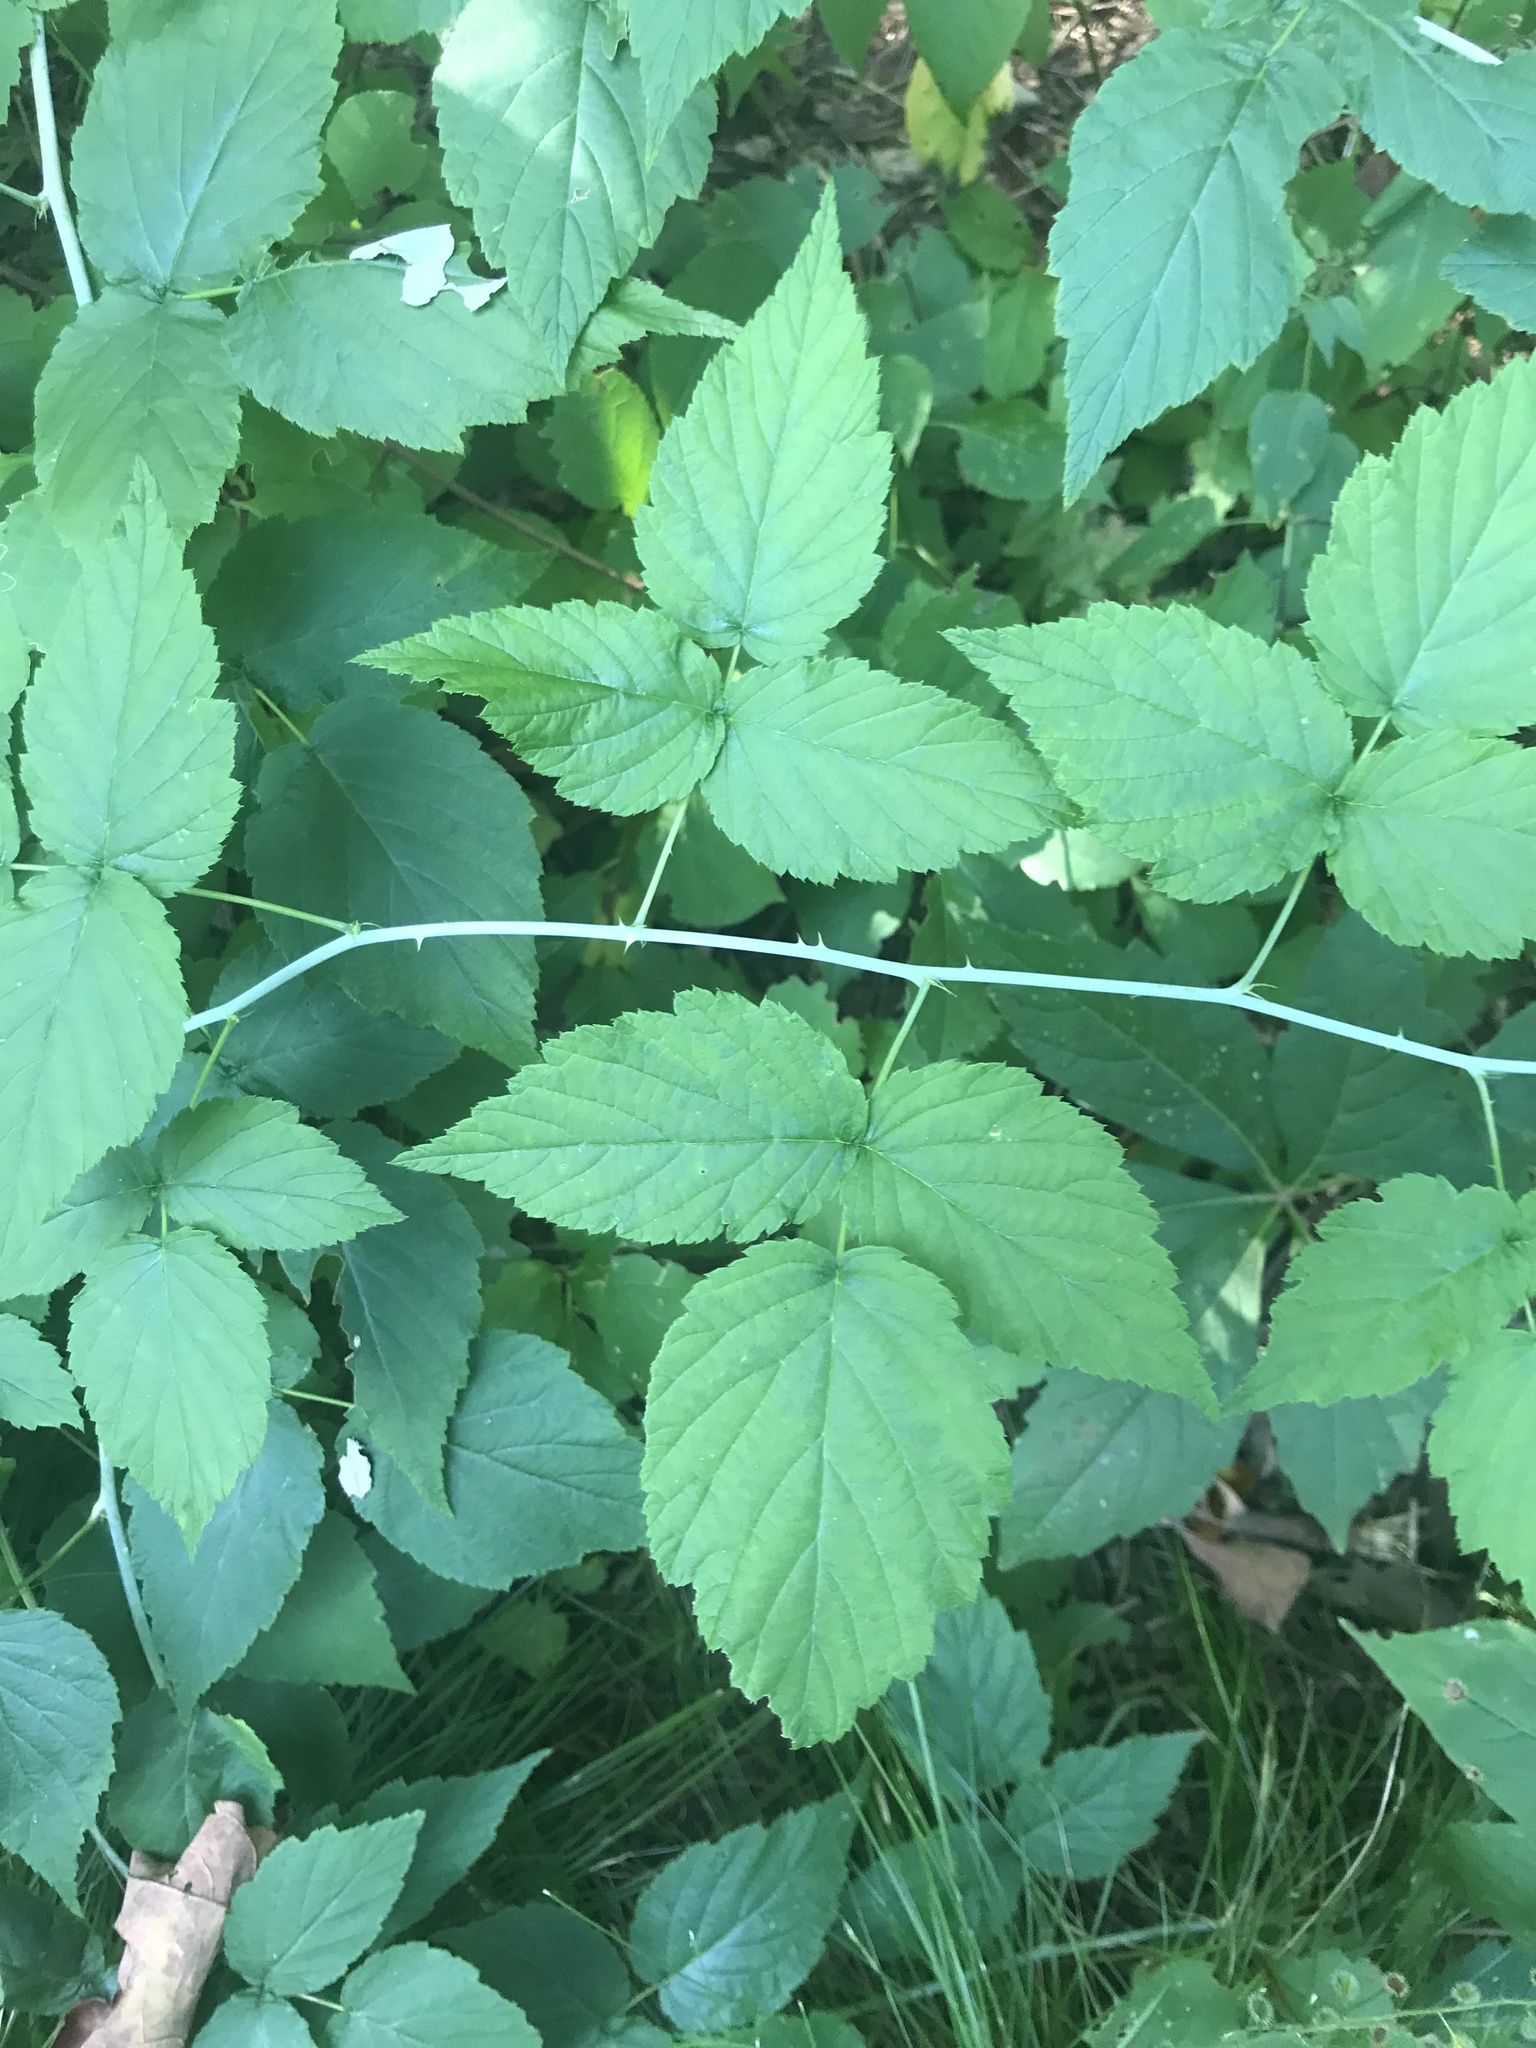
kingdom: Plantae
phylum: Tracheophyta
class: Magnoliopsida
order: Rosales
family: Rosaceae
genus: Rubus
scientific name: Rubus occidentalis
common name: Black raspberry
